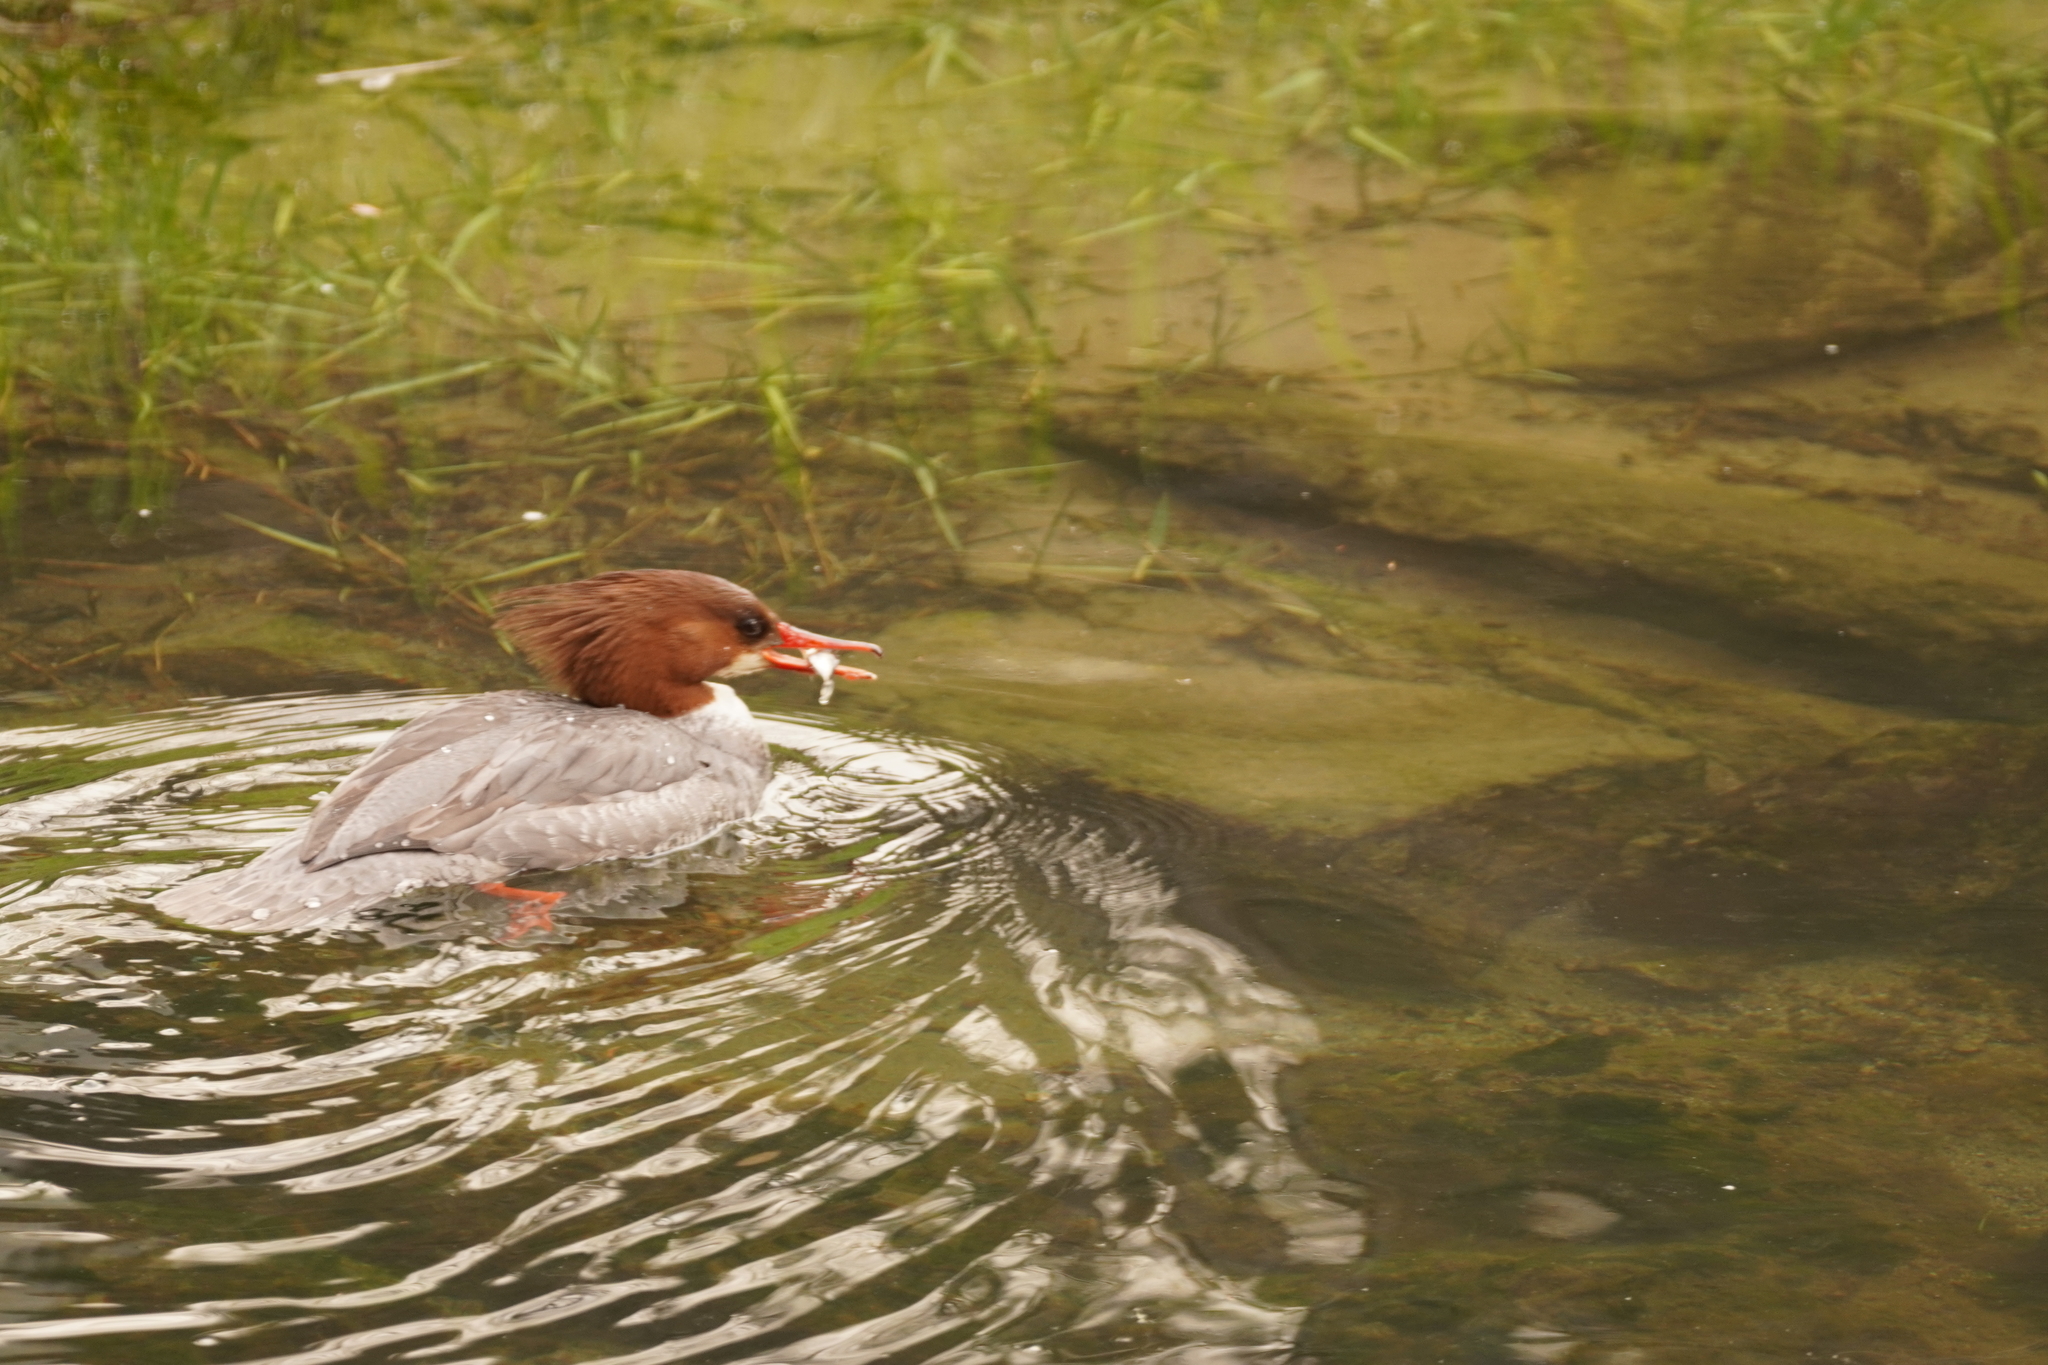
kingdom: Animalia
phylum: Chordata
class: Aves
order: Anseriformes
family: Anatidae
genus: Mergus
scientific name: Mergus merganser
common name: Common merganser
